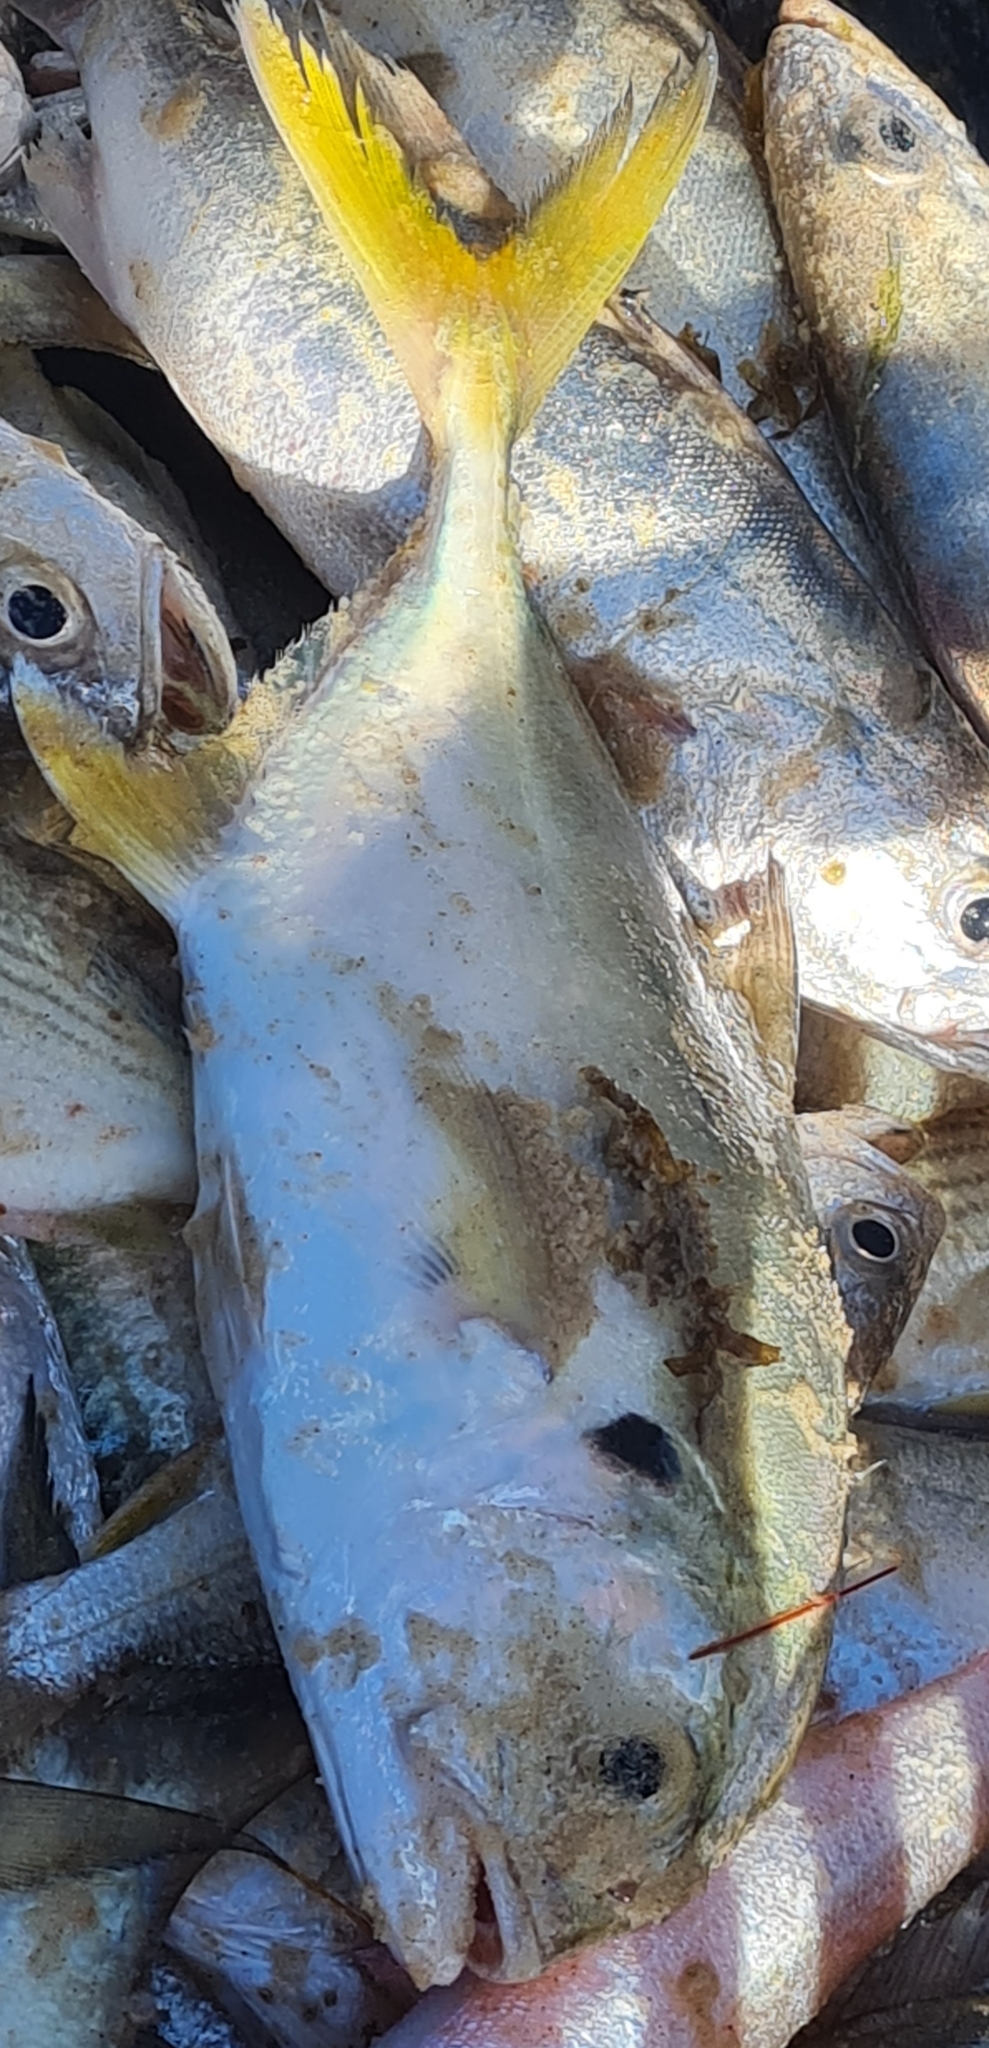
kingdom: Animalia
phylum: Chordata
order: Perciformes
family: Carangidae
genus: Caranx
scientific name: Caranx hippos
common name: Common jack
